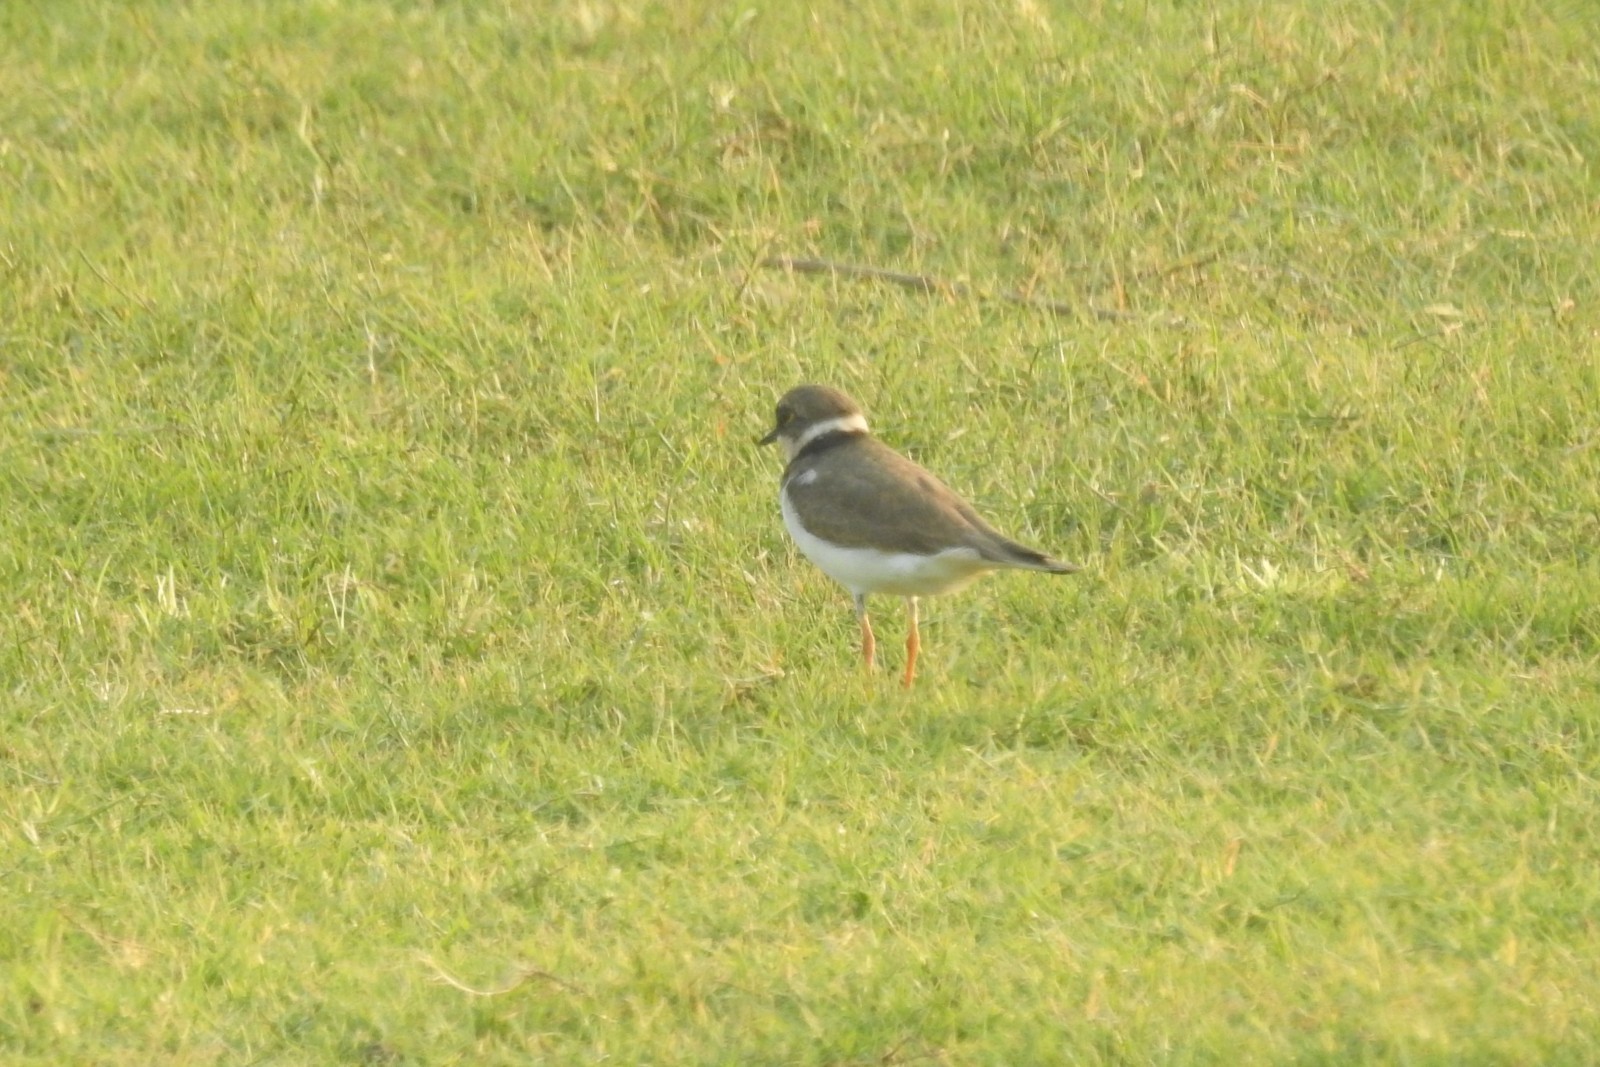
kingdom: Animalia
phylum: Chordata
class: Aves
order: Charadriiformes
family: Charadriidae
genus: Charadrius
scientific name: Charadrius dubius
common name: Little ringed plover
